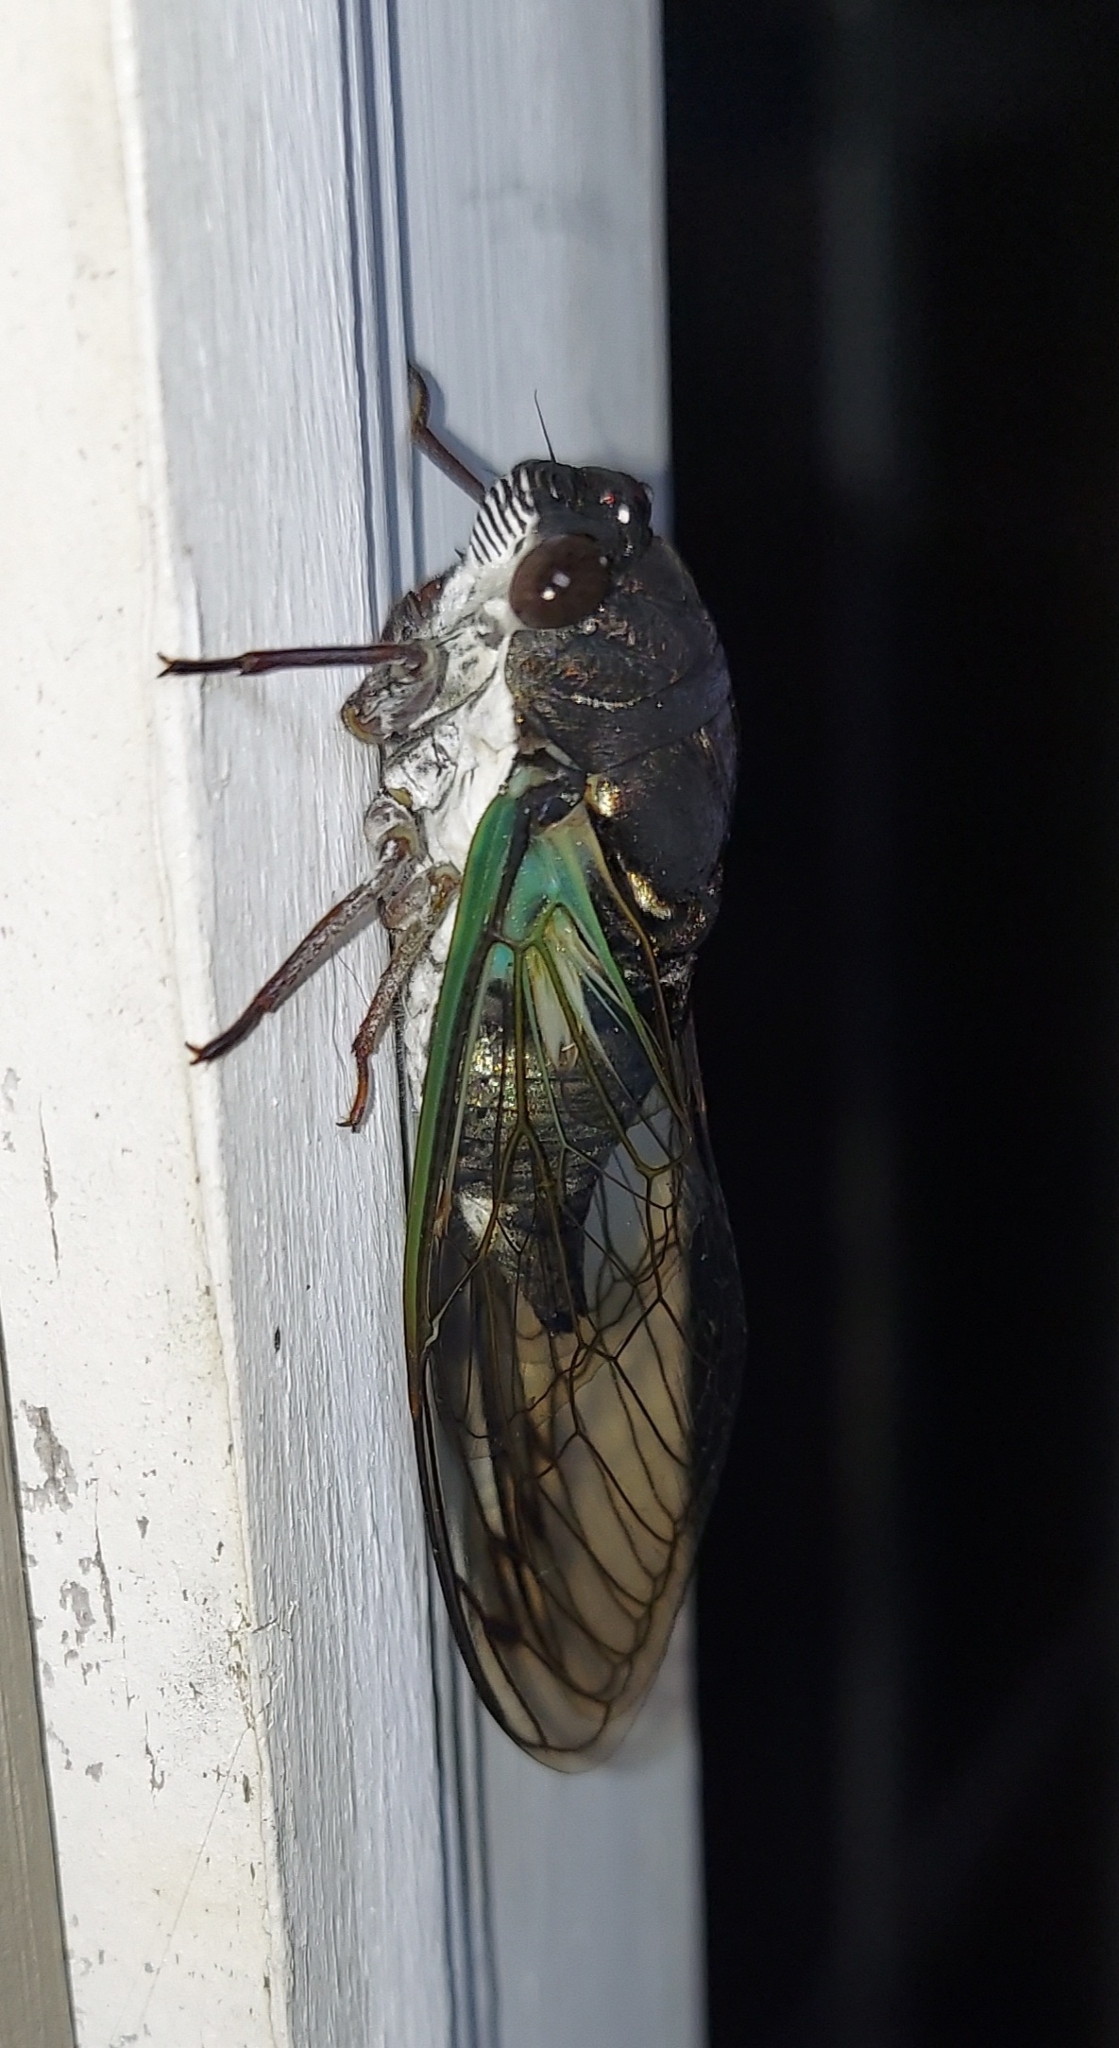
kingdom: Animalia
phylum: Arthropoda
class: Insecta
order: Hemiptera
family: Cicadidae
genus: Neotibicen
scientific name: Neotibicen lyricen
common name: Lyric cicada
